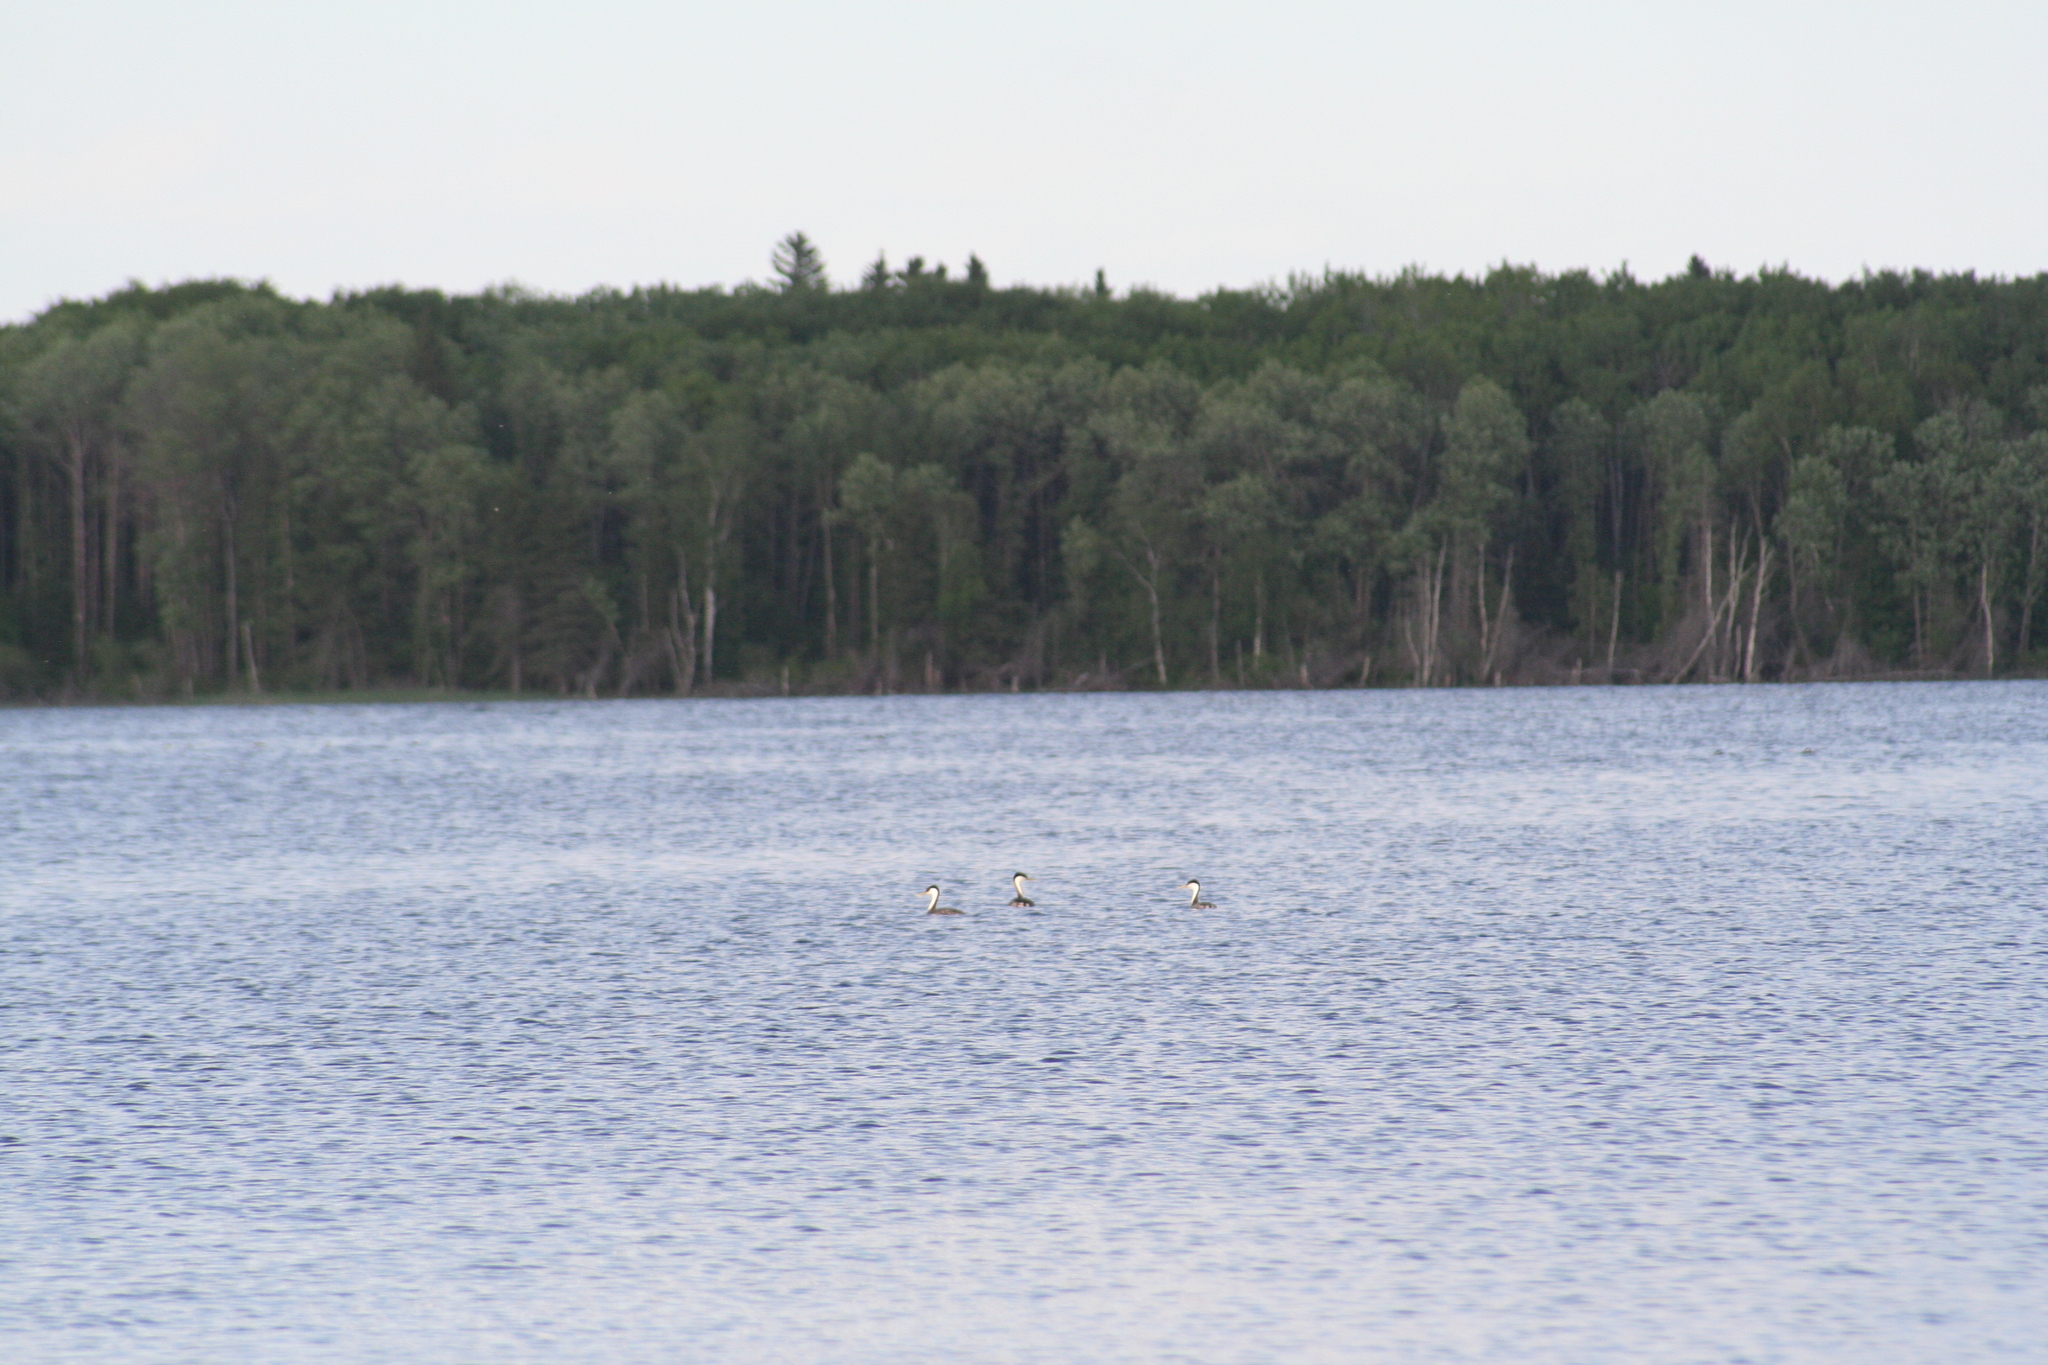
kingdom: Animalia
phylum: Chordata
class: Aves
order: Podicipediformes
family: Podicipedidae
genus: Aechmophorus
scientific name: Aechmophorus occidentalis
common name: Western grebe
